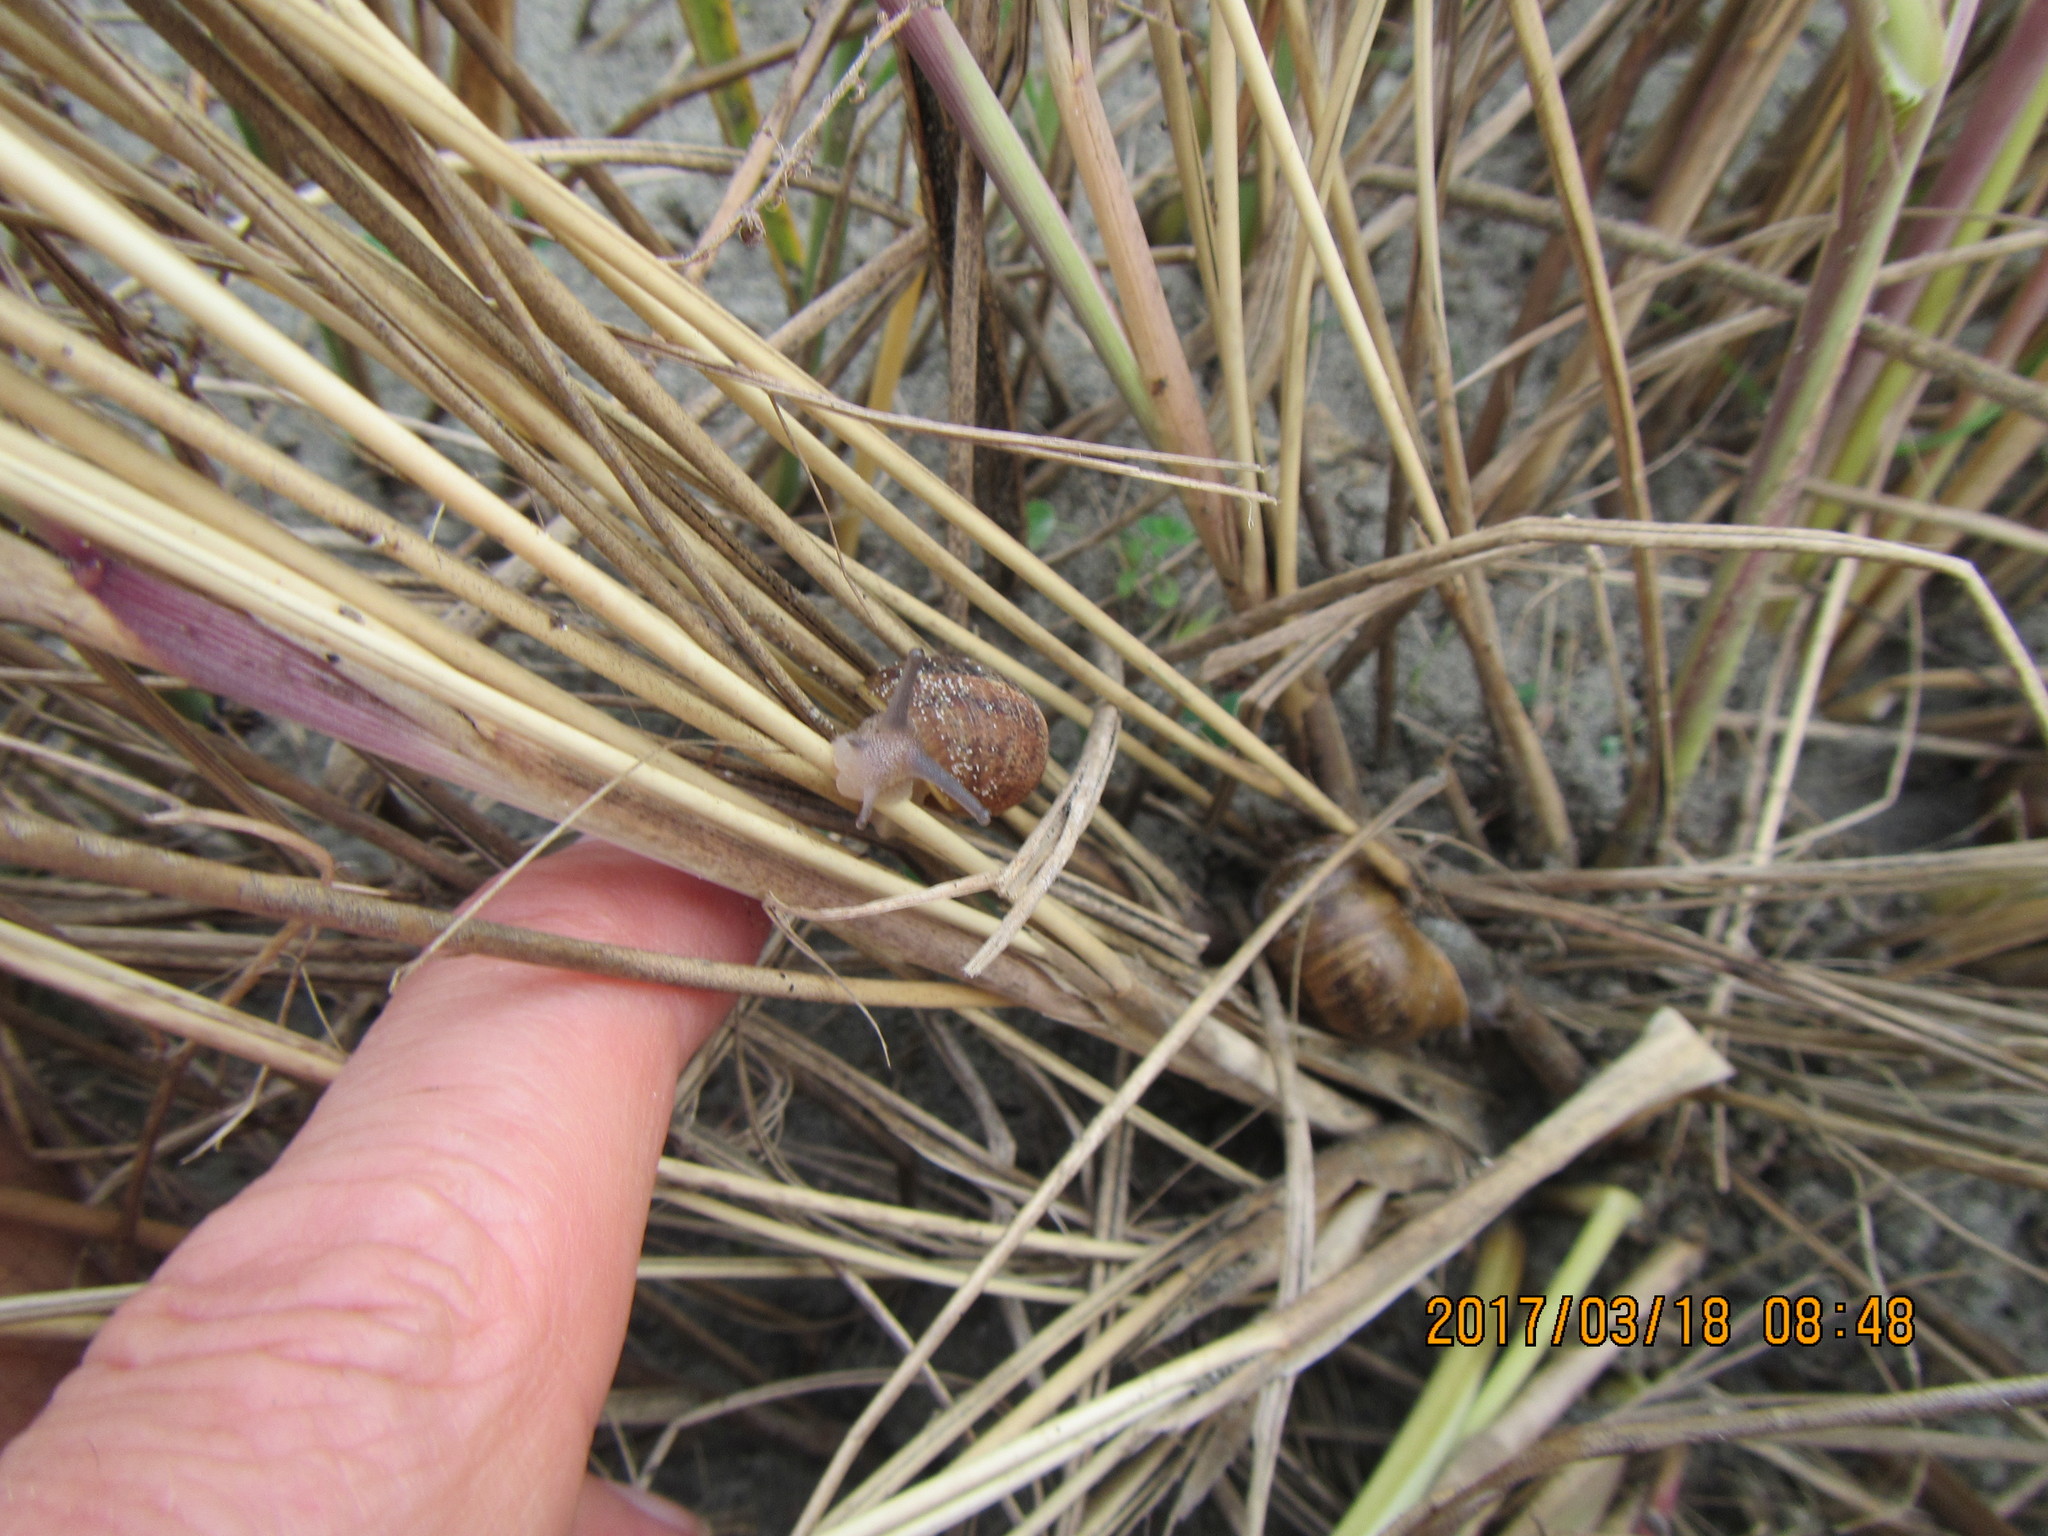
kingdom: Animalia
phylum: Mollusca
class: Gastropoda
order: Stylommatophora
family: Helicidae
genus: Cornu
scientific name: Cornu aspersum
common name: Brown garden snail
